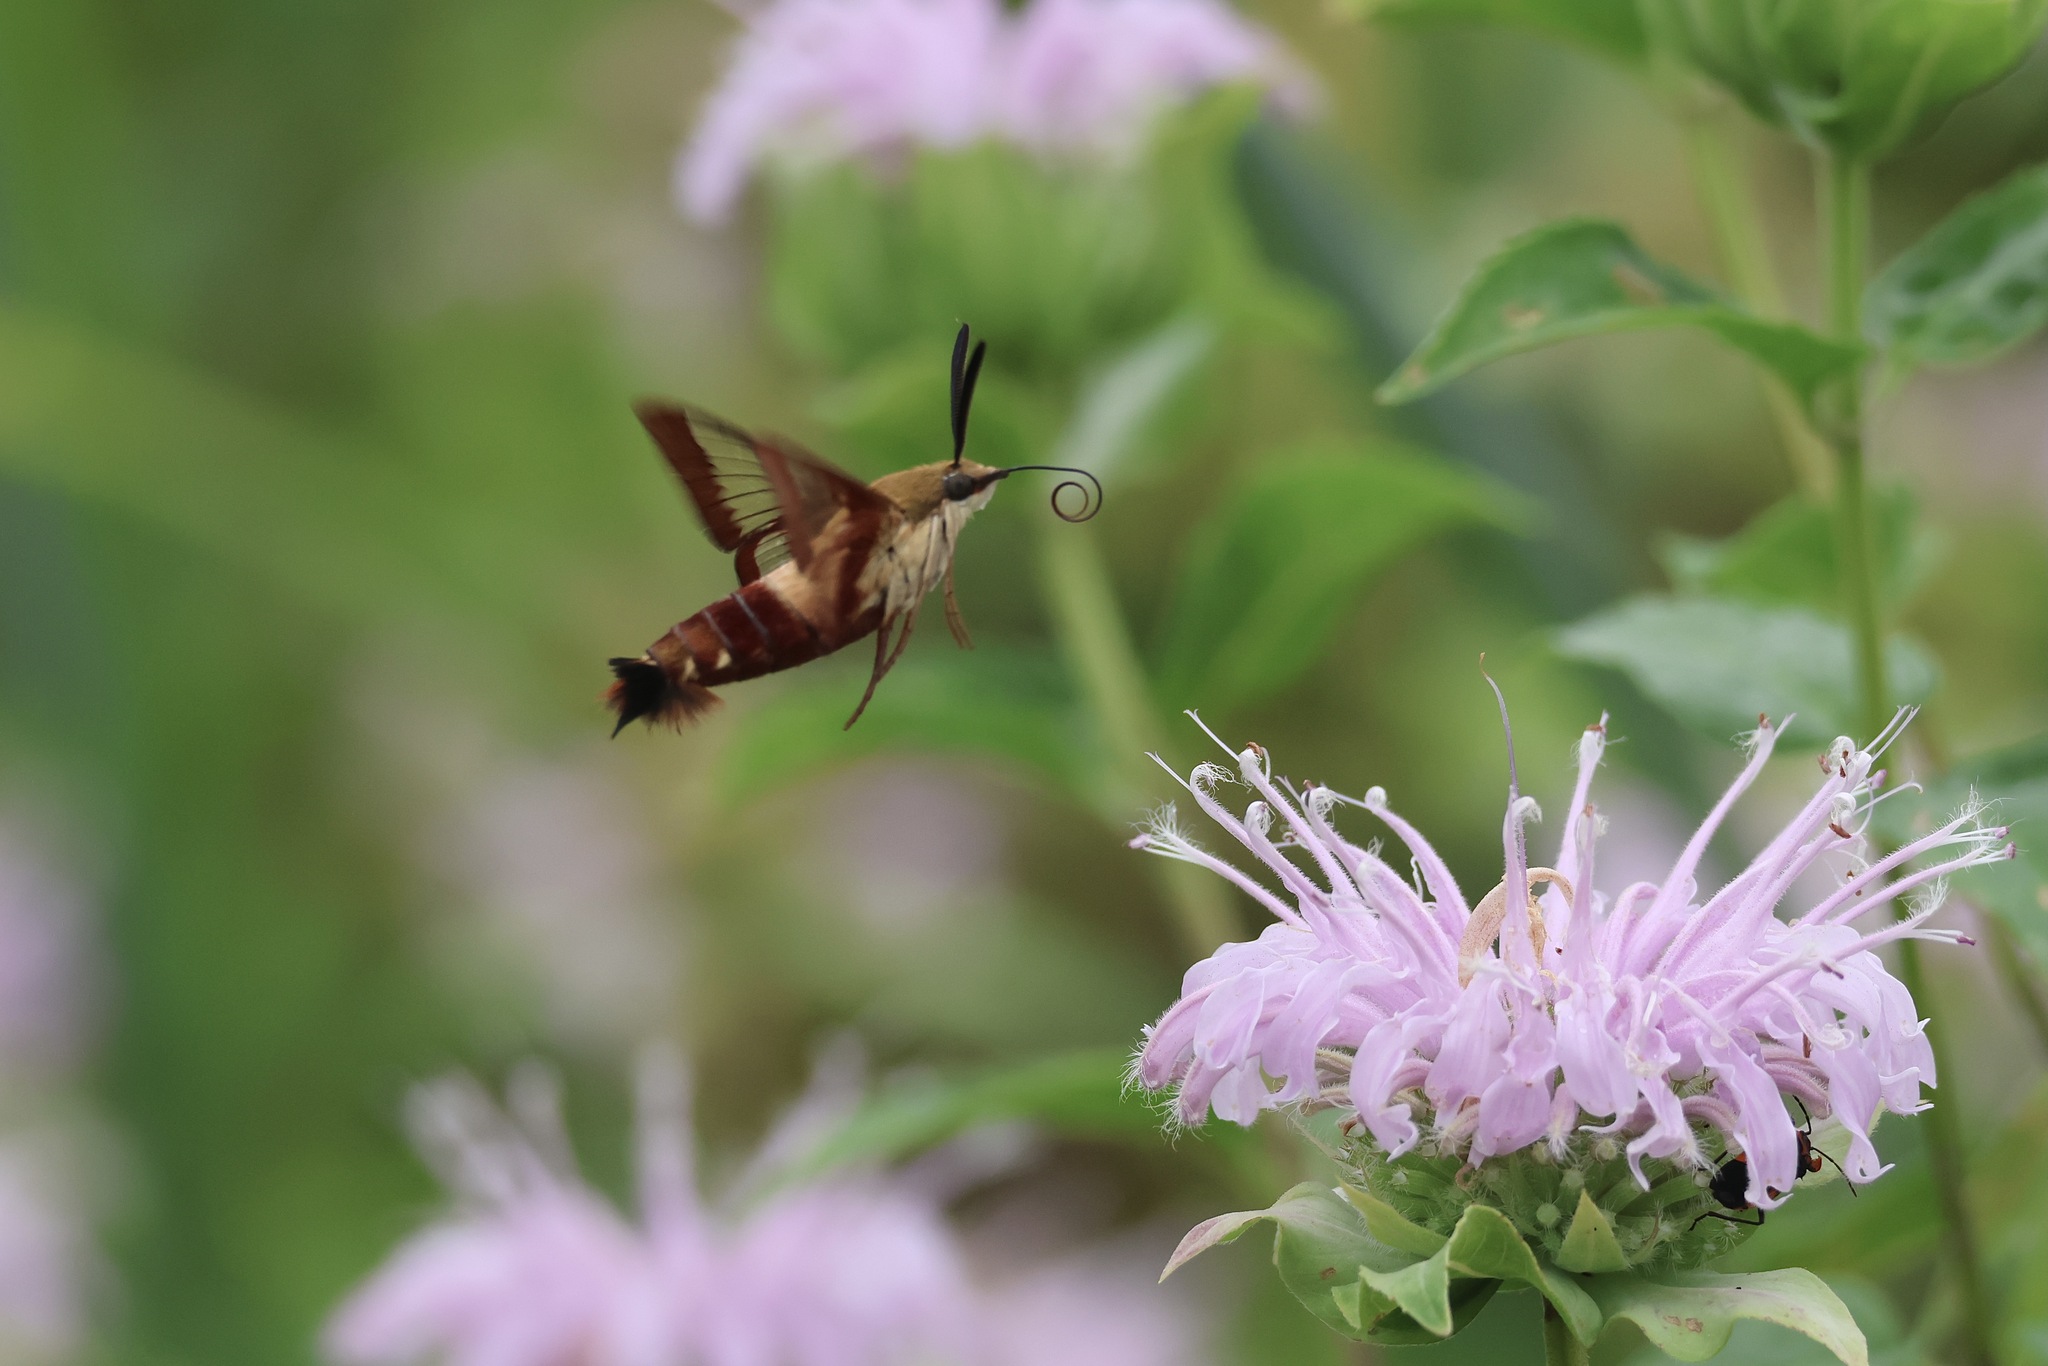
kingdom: Animalia
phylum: Arthropoda
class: Insecta
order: Lepidoptera
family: Sphingidae
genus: Hemaris
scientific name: Hemaris thysbe
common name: Common clear-wing
